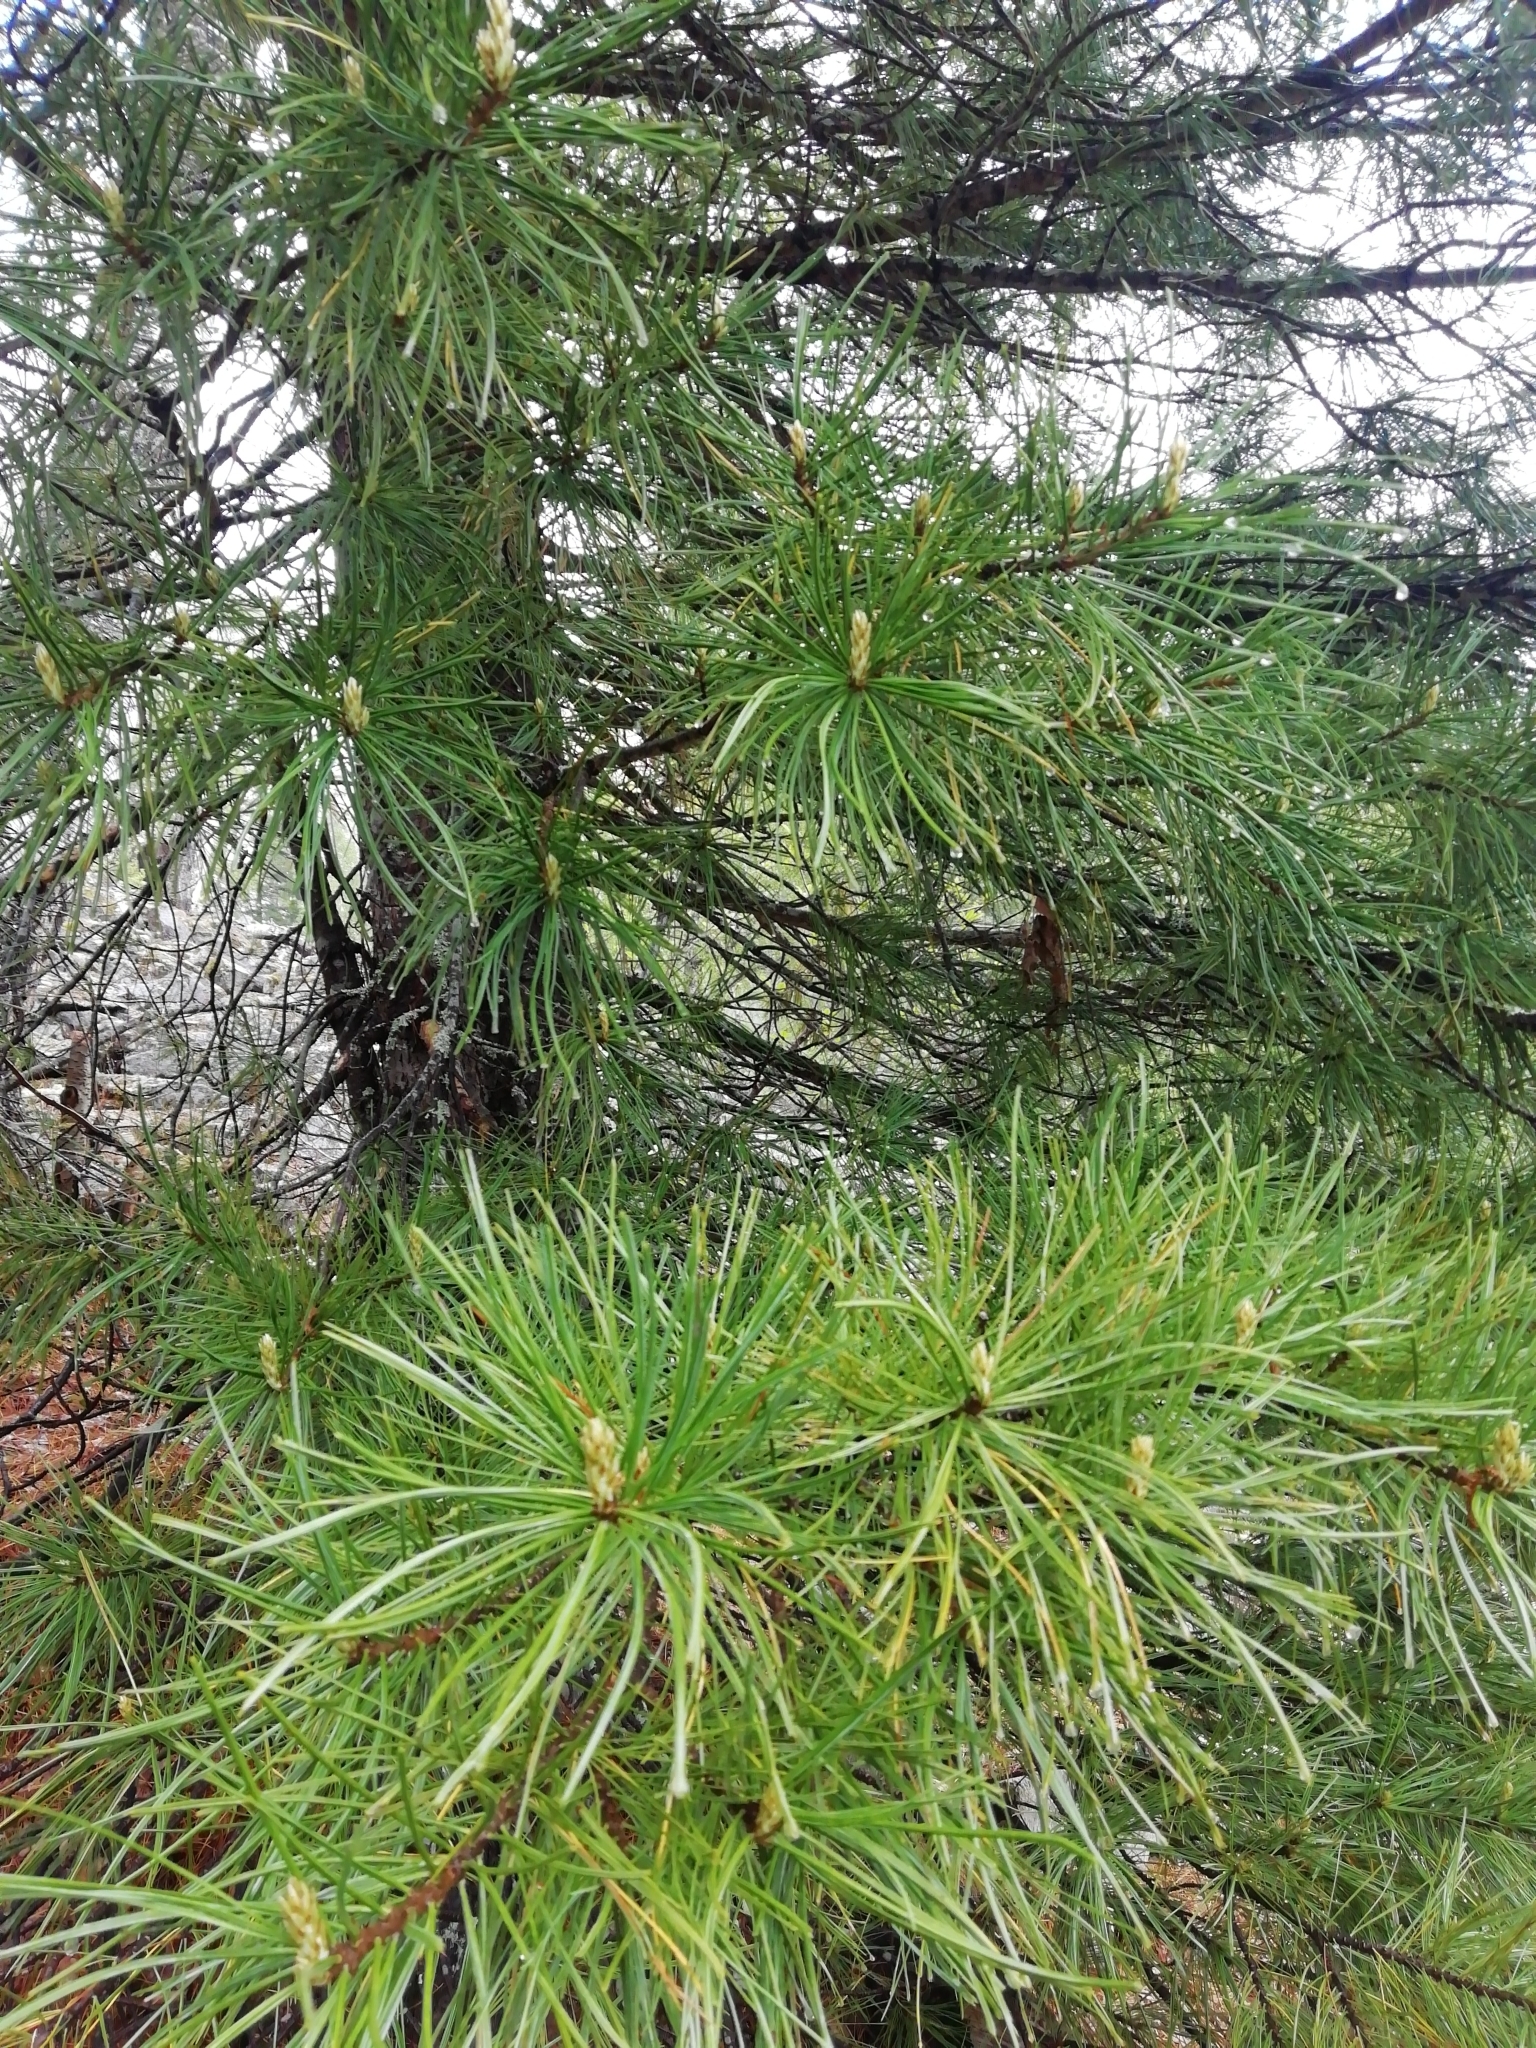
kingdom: Plantae
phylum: Tracheophyta
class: Pinopsida
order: Pinales
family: Pinaceae
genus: Pinus
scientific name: Pinus sibirica
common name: Siberian pine
